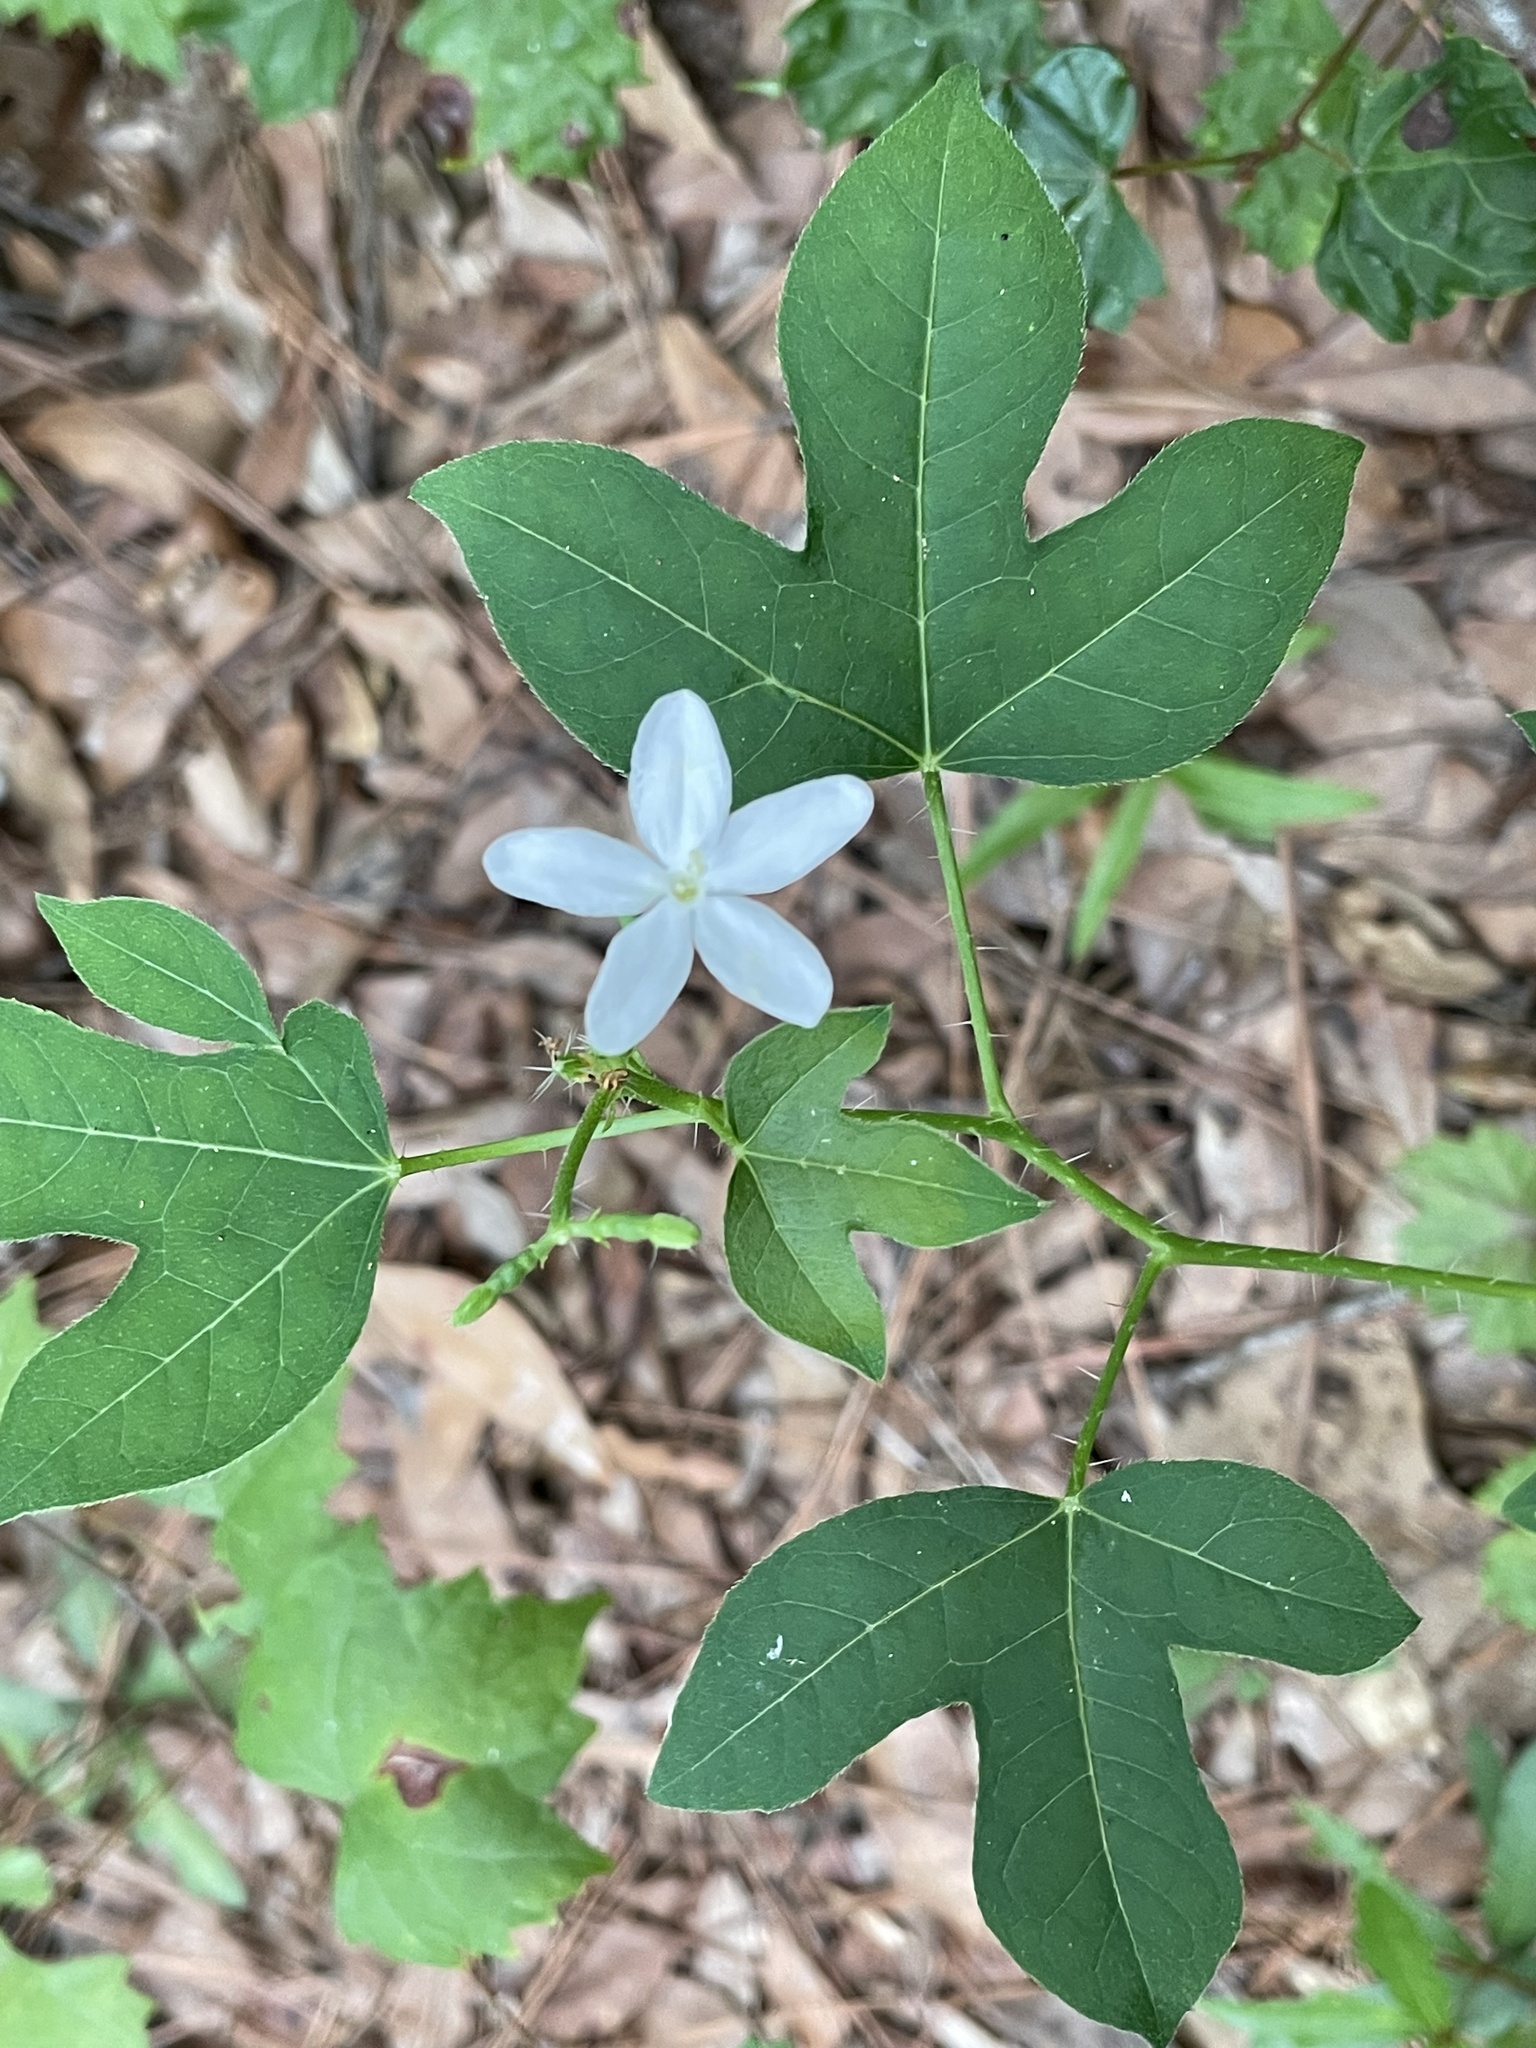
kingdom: Plantae
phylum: Tracheophyta
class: Magnoliopsida
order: Malpighiales
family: Euphorbiaceae
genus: Cnidoscolus
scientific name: Cnidoscolus stimulosus
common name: Bull-nettle
